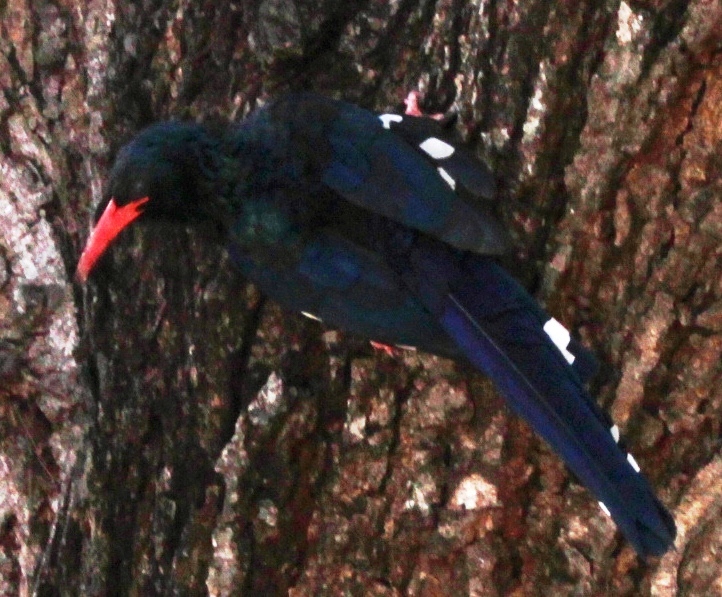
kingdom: Animalia
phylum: Chordata
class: Aves
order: Bucerotiformes
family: Phoeniculidae
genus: Phoeniculus
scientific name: Phoeniculus purpureus
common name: Green woodhoopoe
